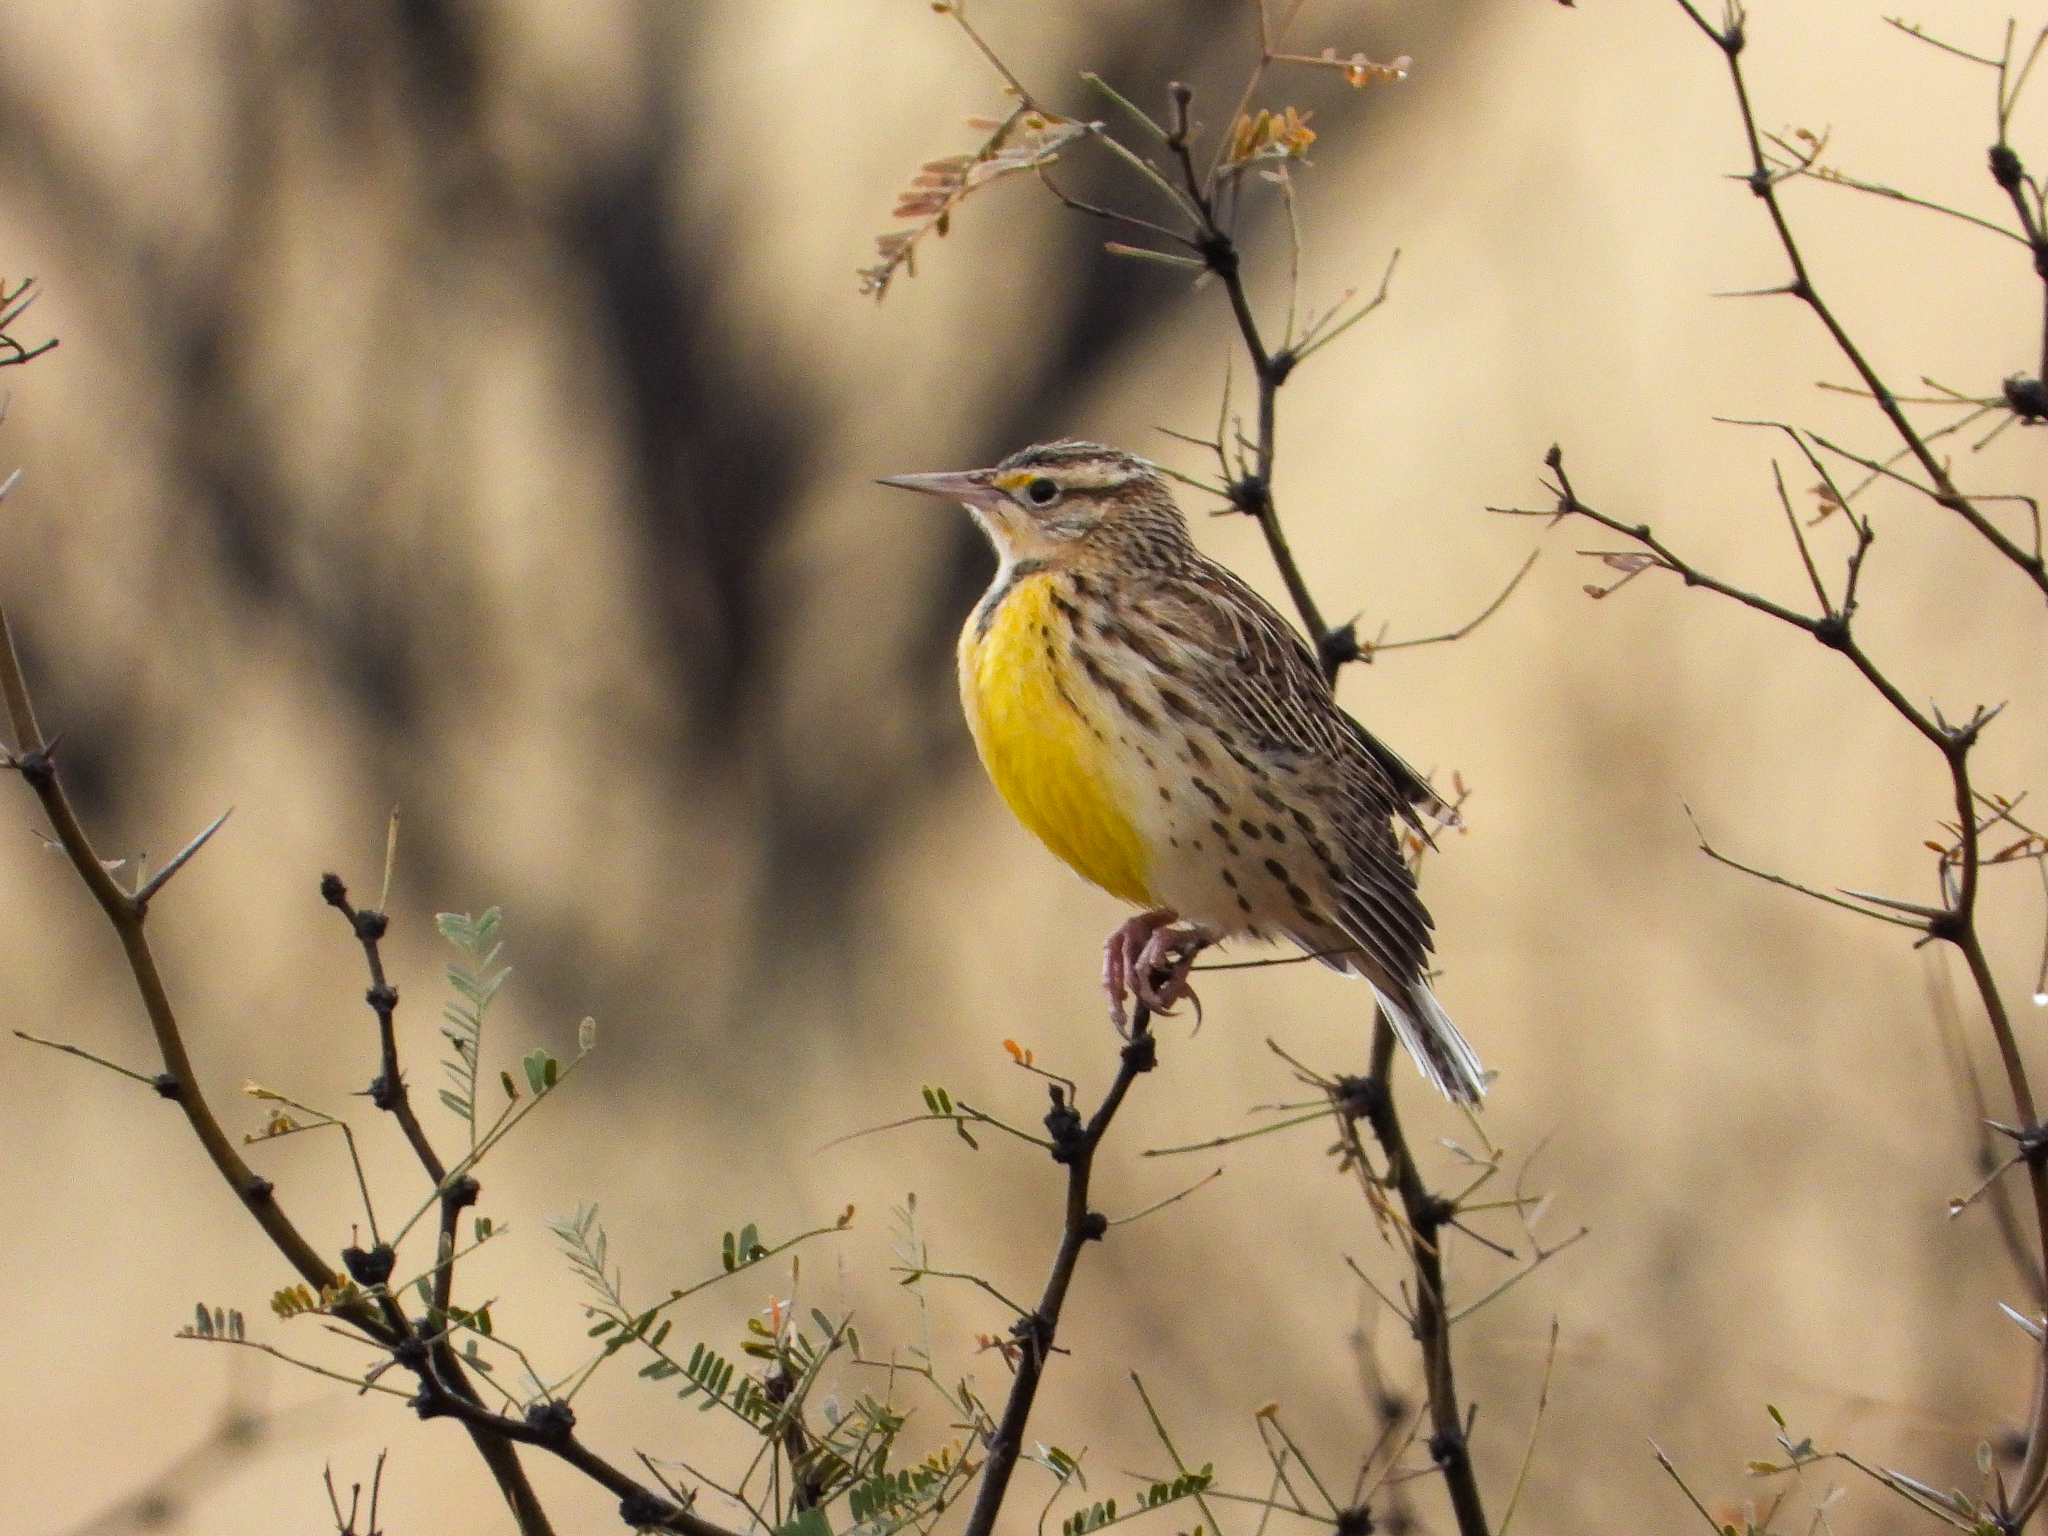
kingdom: Animalia
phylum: Chordata
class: Aves
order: Passeriformes
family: Icteridae
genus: Sturnella
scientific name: Sturnella neglecta
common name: Western meadowlark
